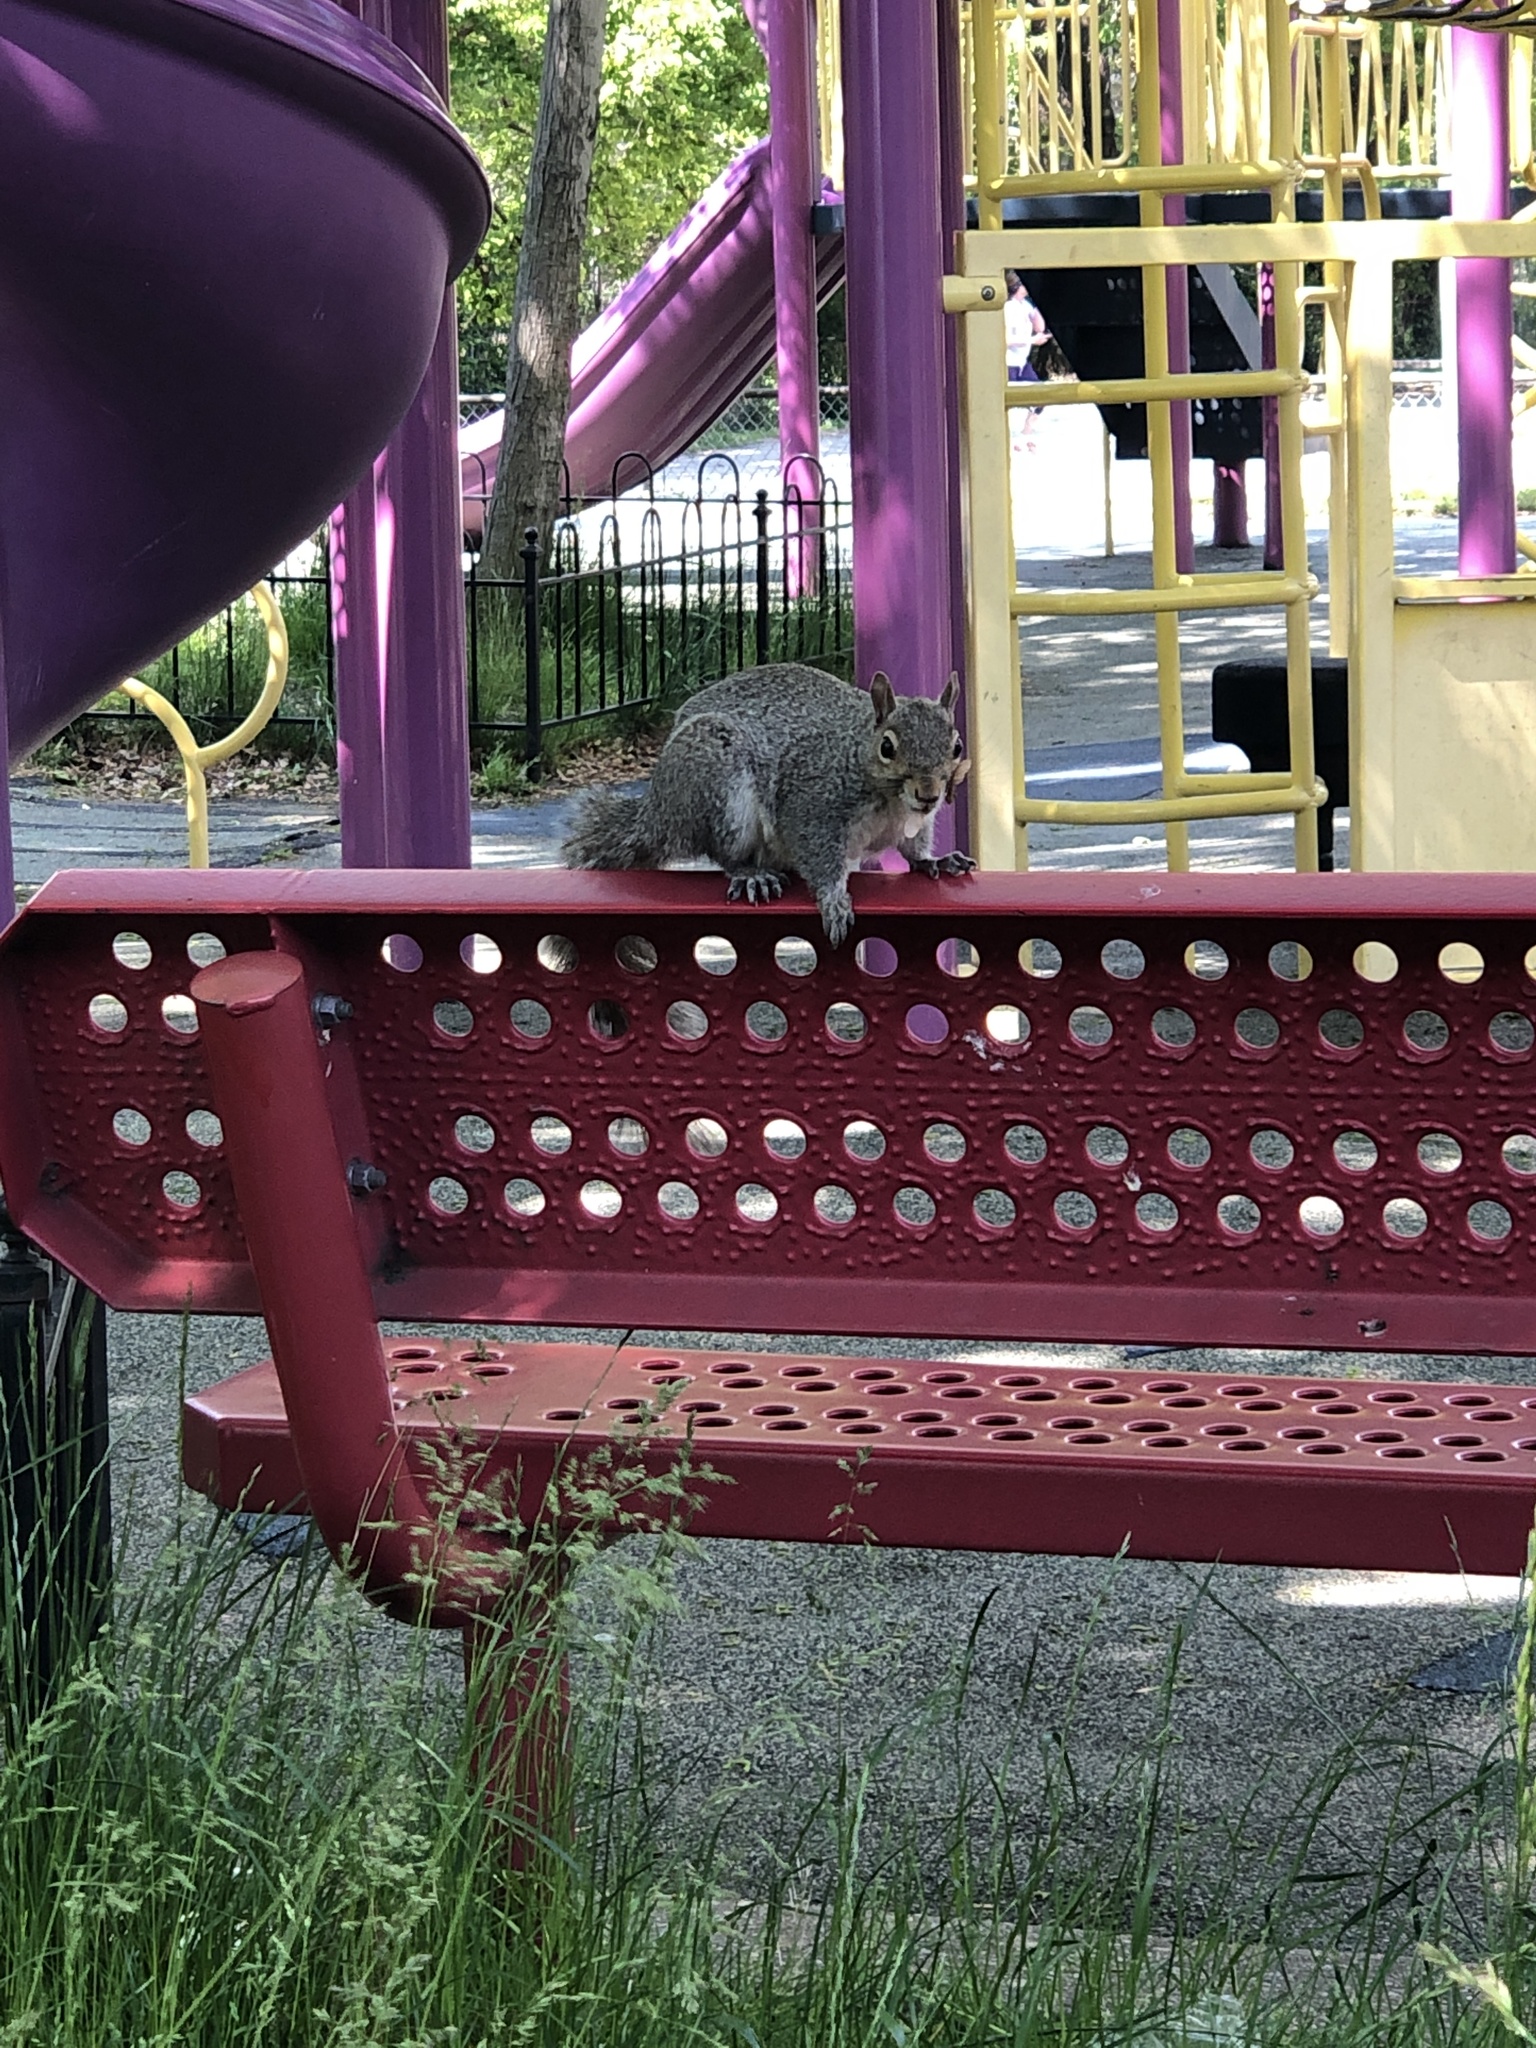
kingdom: Animalia
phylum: Chordata
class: Mammalia
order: Rodentia
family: Sciuridae
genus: Sciurus
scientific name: Sciurus carolinensis
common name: Eastern gray squirrel
